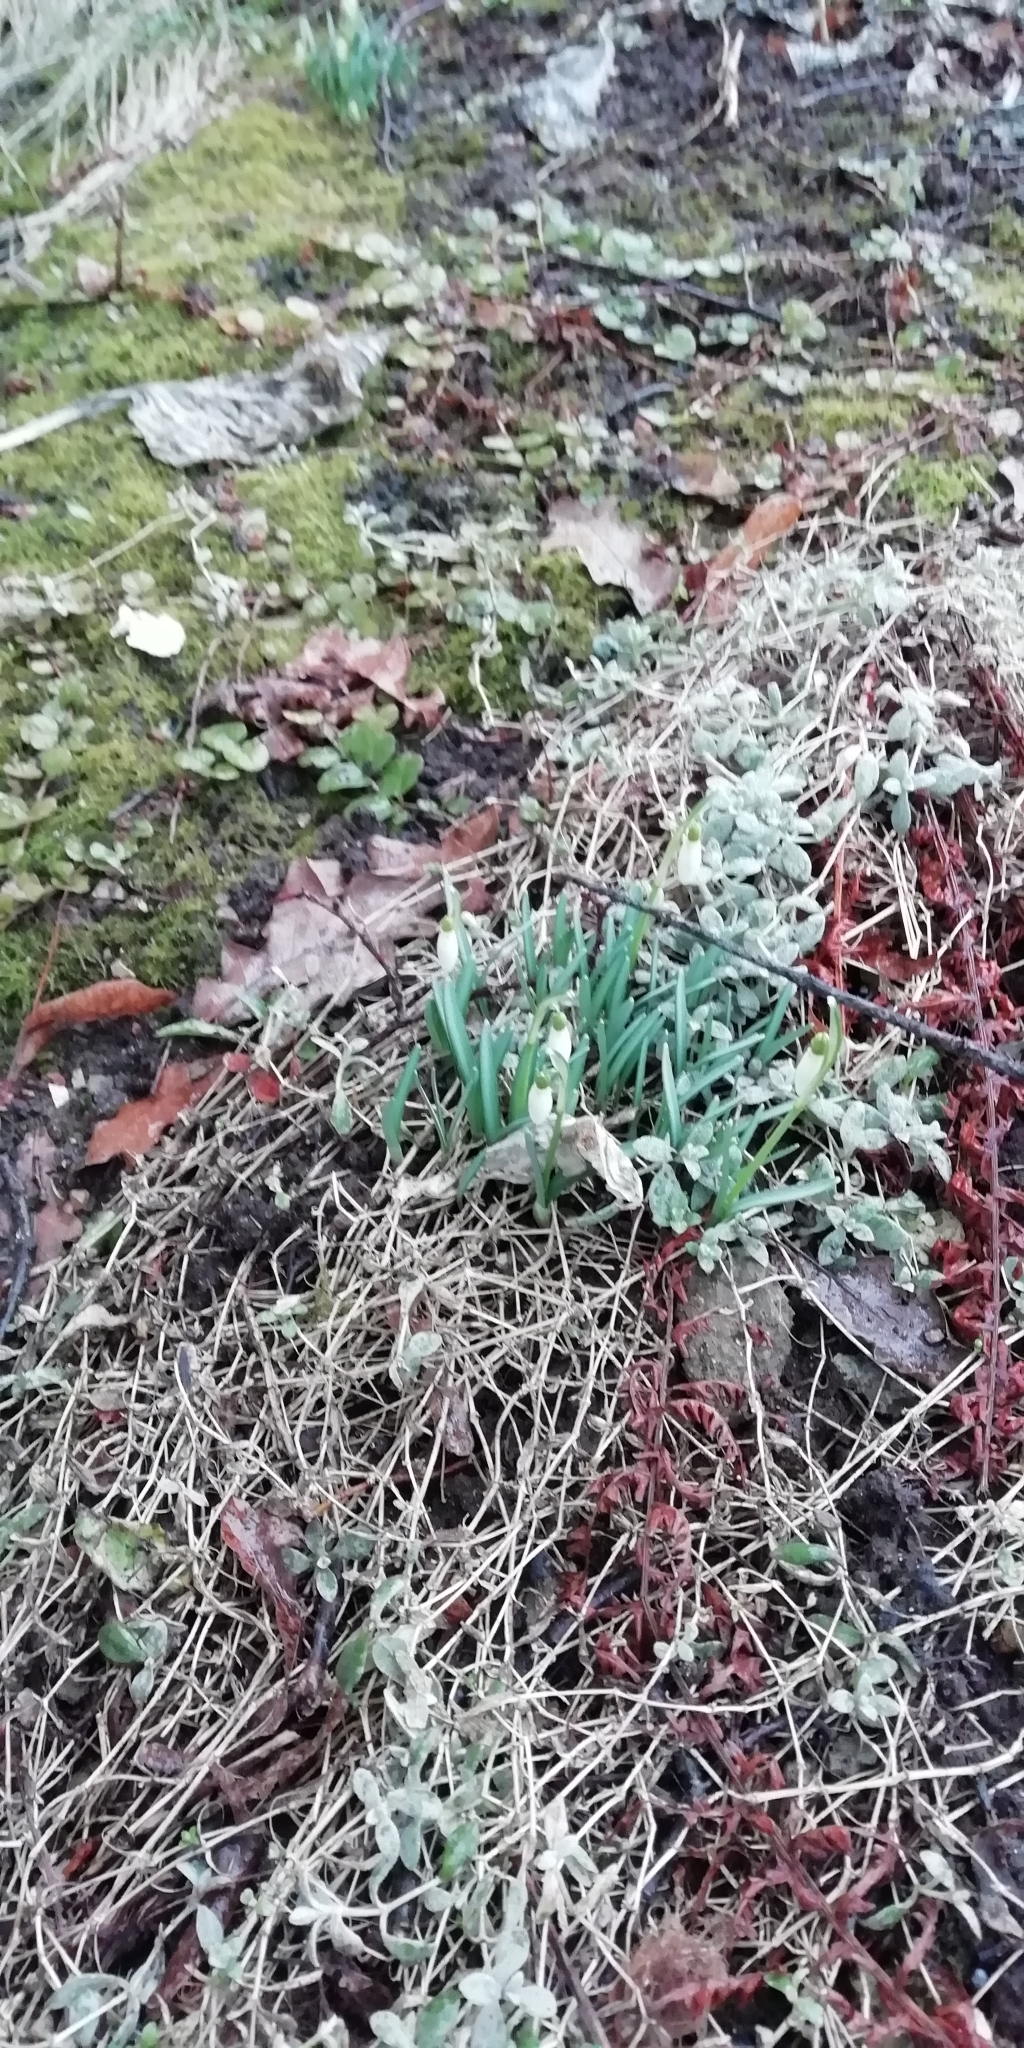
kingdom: Plantae
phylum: Tracheophyta
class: Liliopsida
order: Asparagales
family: Amaryllidaceae
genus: Galanthus
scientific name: Galanthus nivalis
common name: Snowdrop
